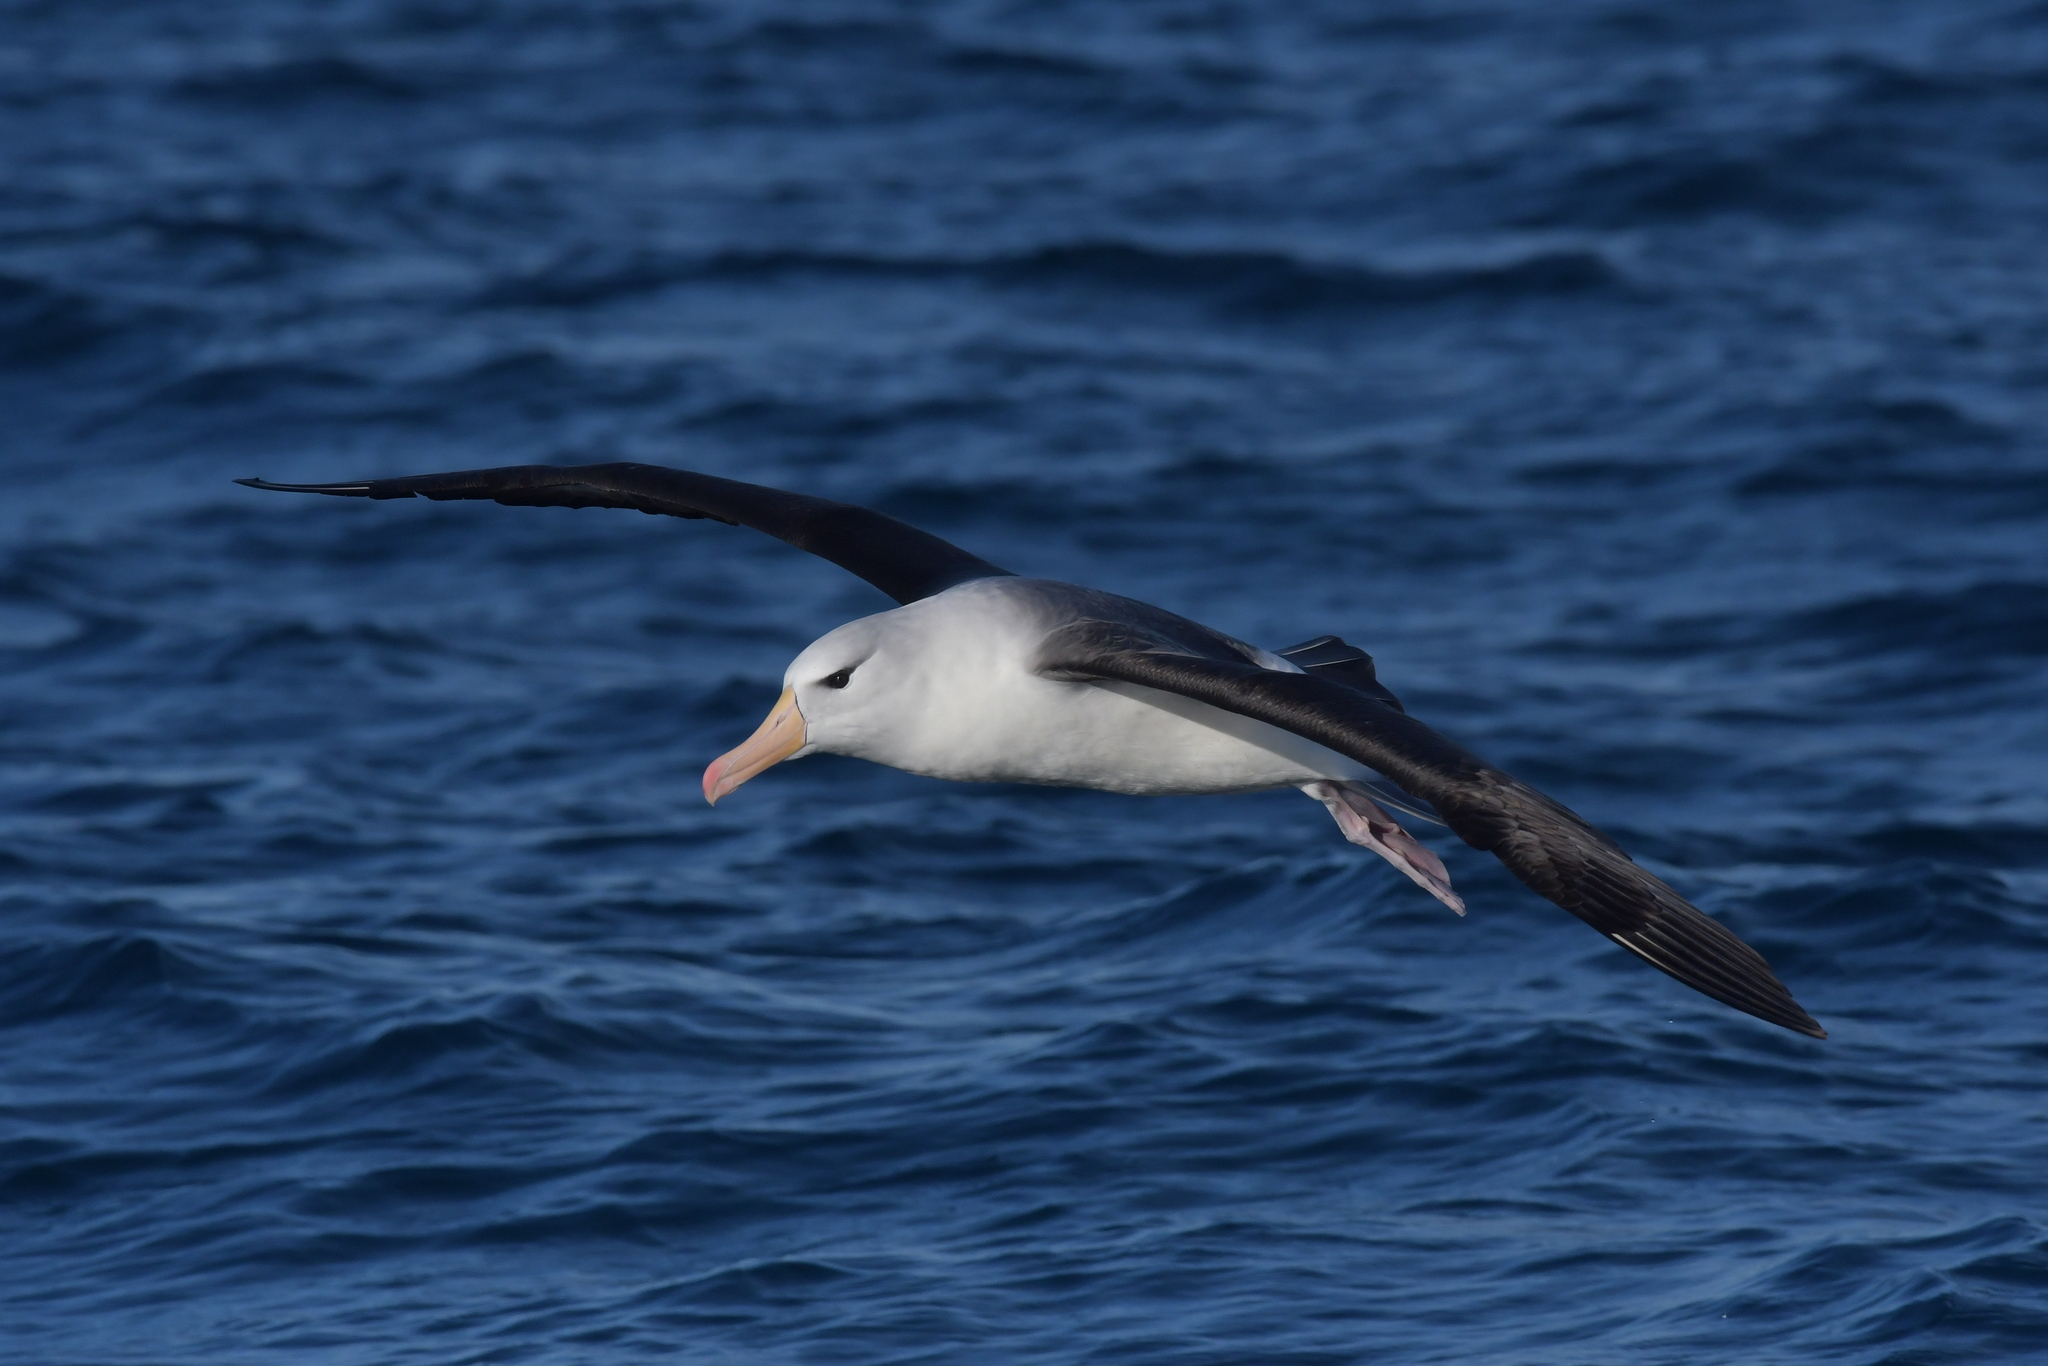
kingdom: Animalia
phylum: Chordata
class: Aves
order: Procellariiformes
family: Diomedeidae
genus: Thalassarche
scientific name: Thalassarche melanophris
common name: Black-browed albatross
